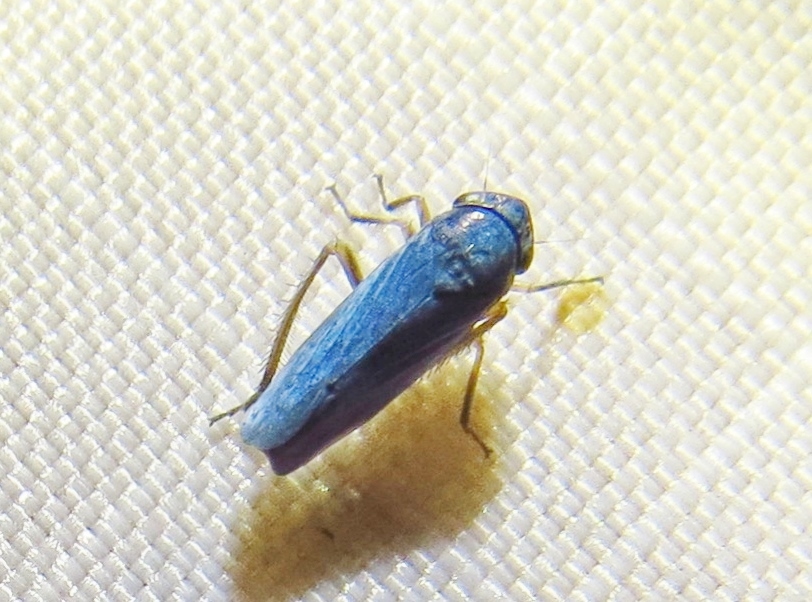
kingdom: Animalia
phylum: Arthropoda
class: Insecta
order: Hemiptera
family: Cicadellidae
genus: Ciminius
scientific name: Ciminius hartii
